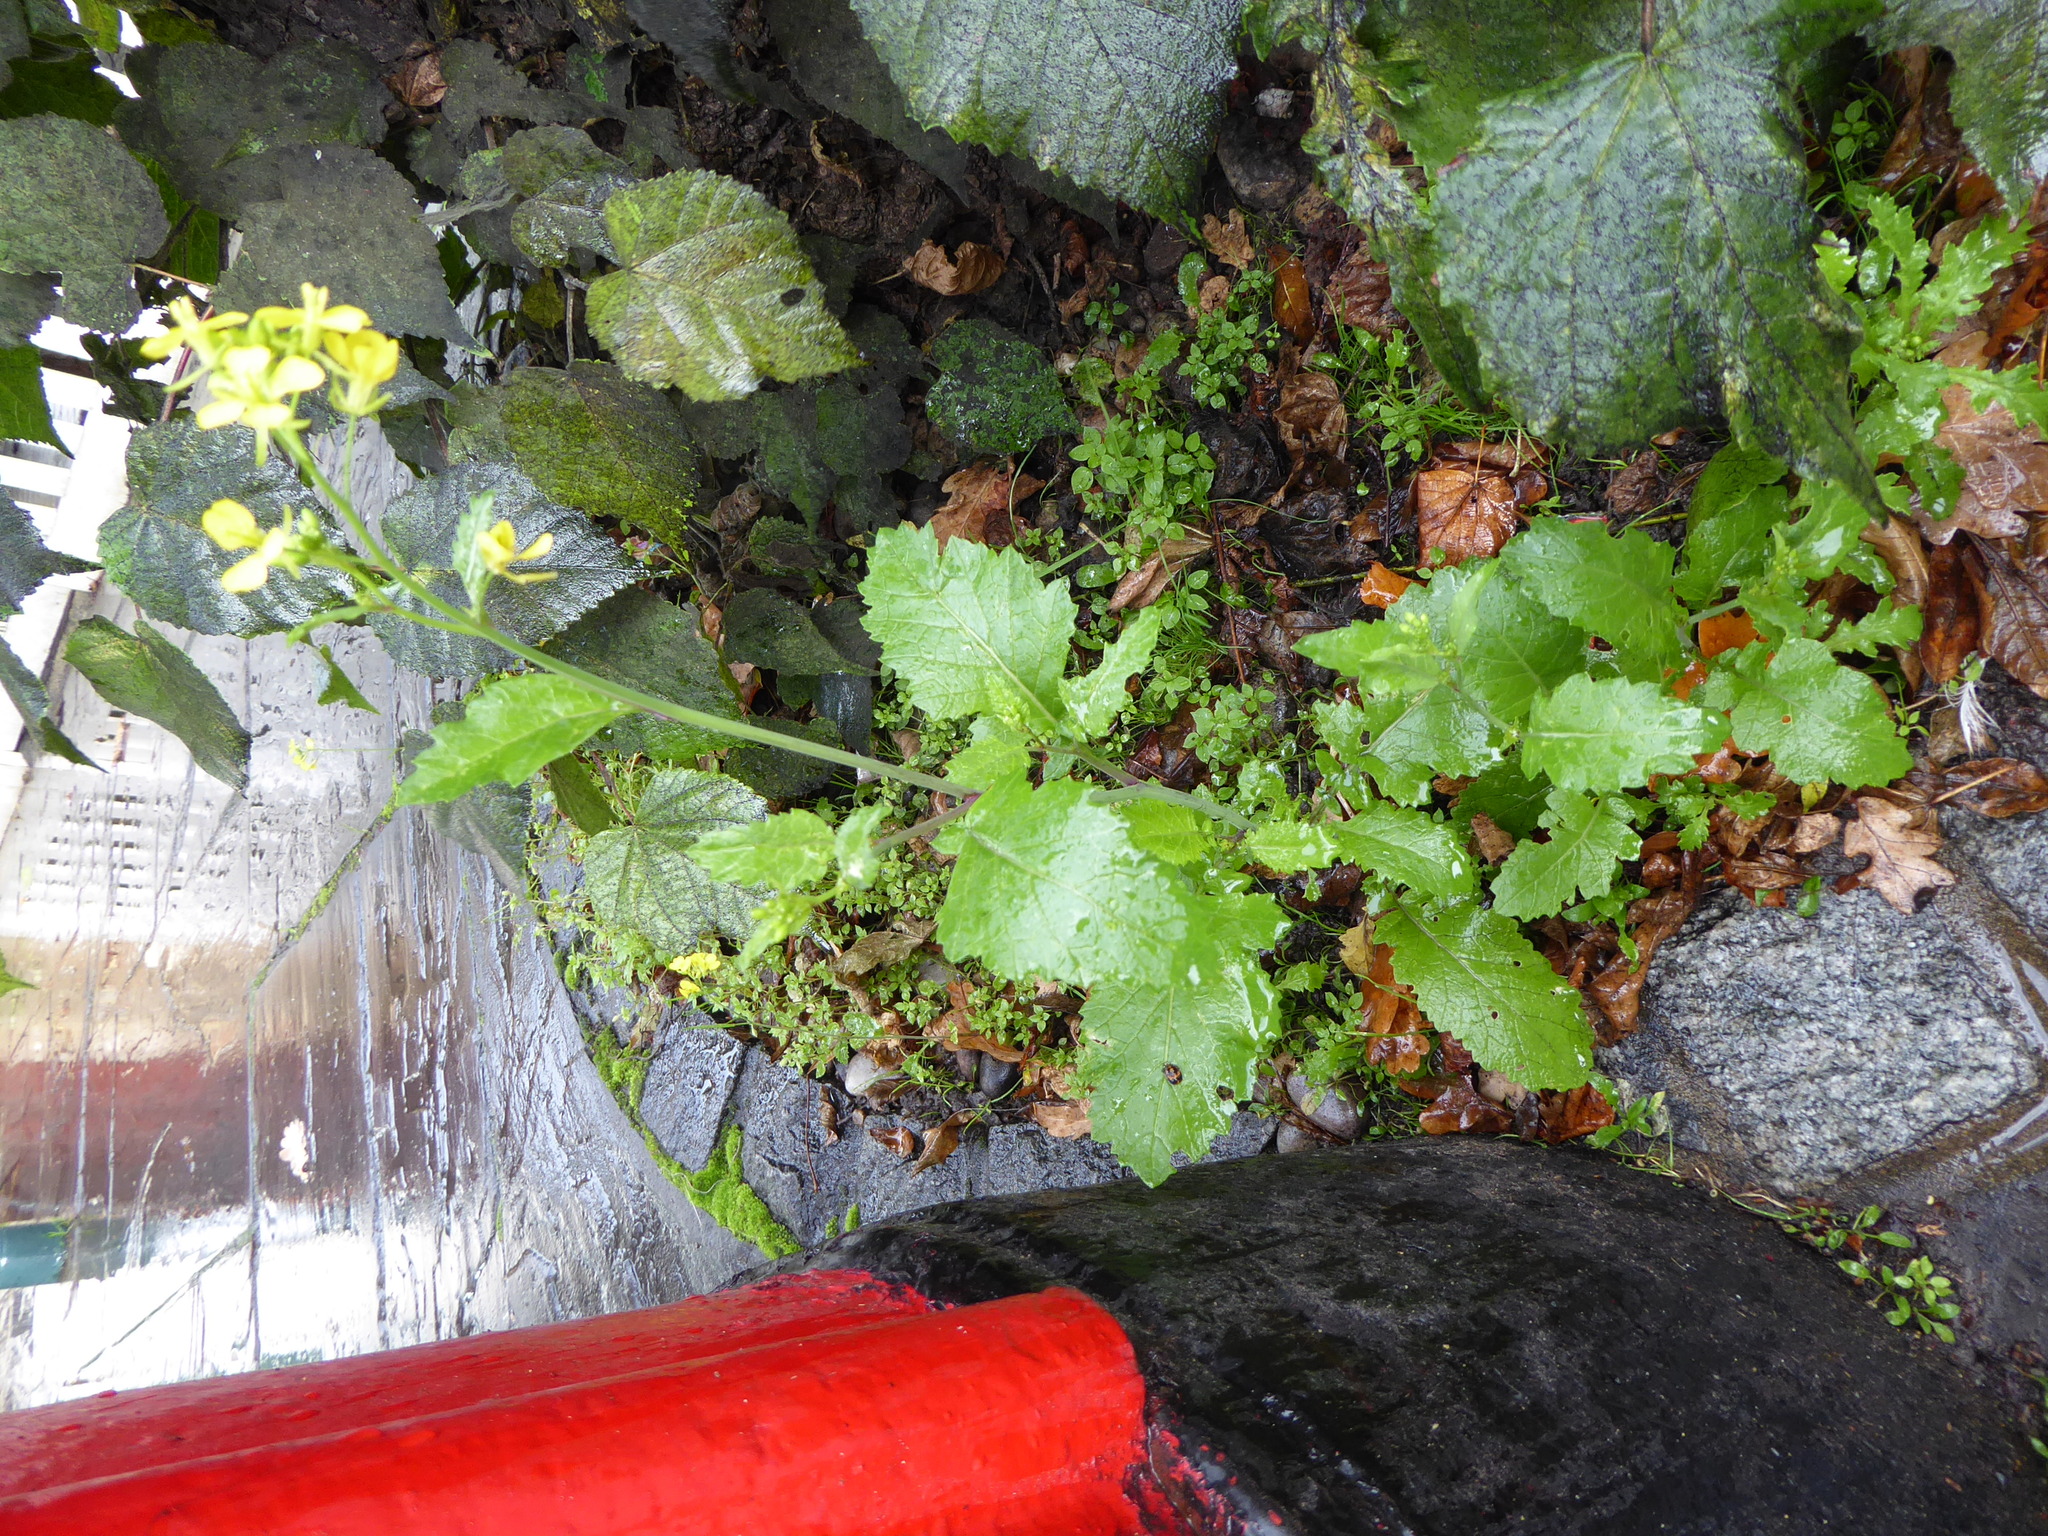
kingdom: Plantae
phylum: Tracheophyta
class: Magnoliopsida
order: Brassicales
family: Brassicaceae
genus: Sinapis
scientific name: Sinapis arvensis
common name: Charlock
